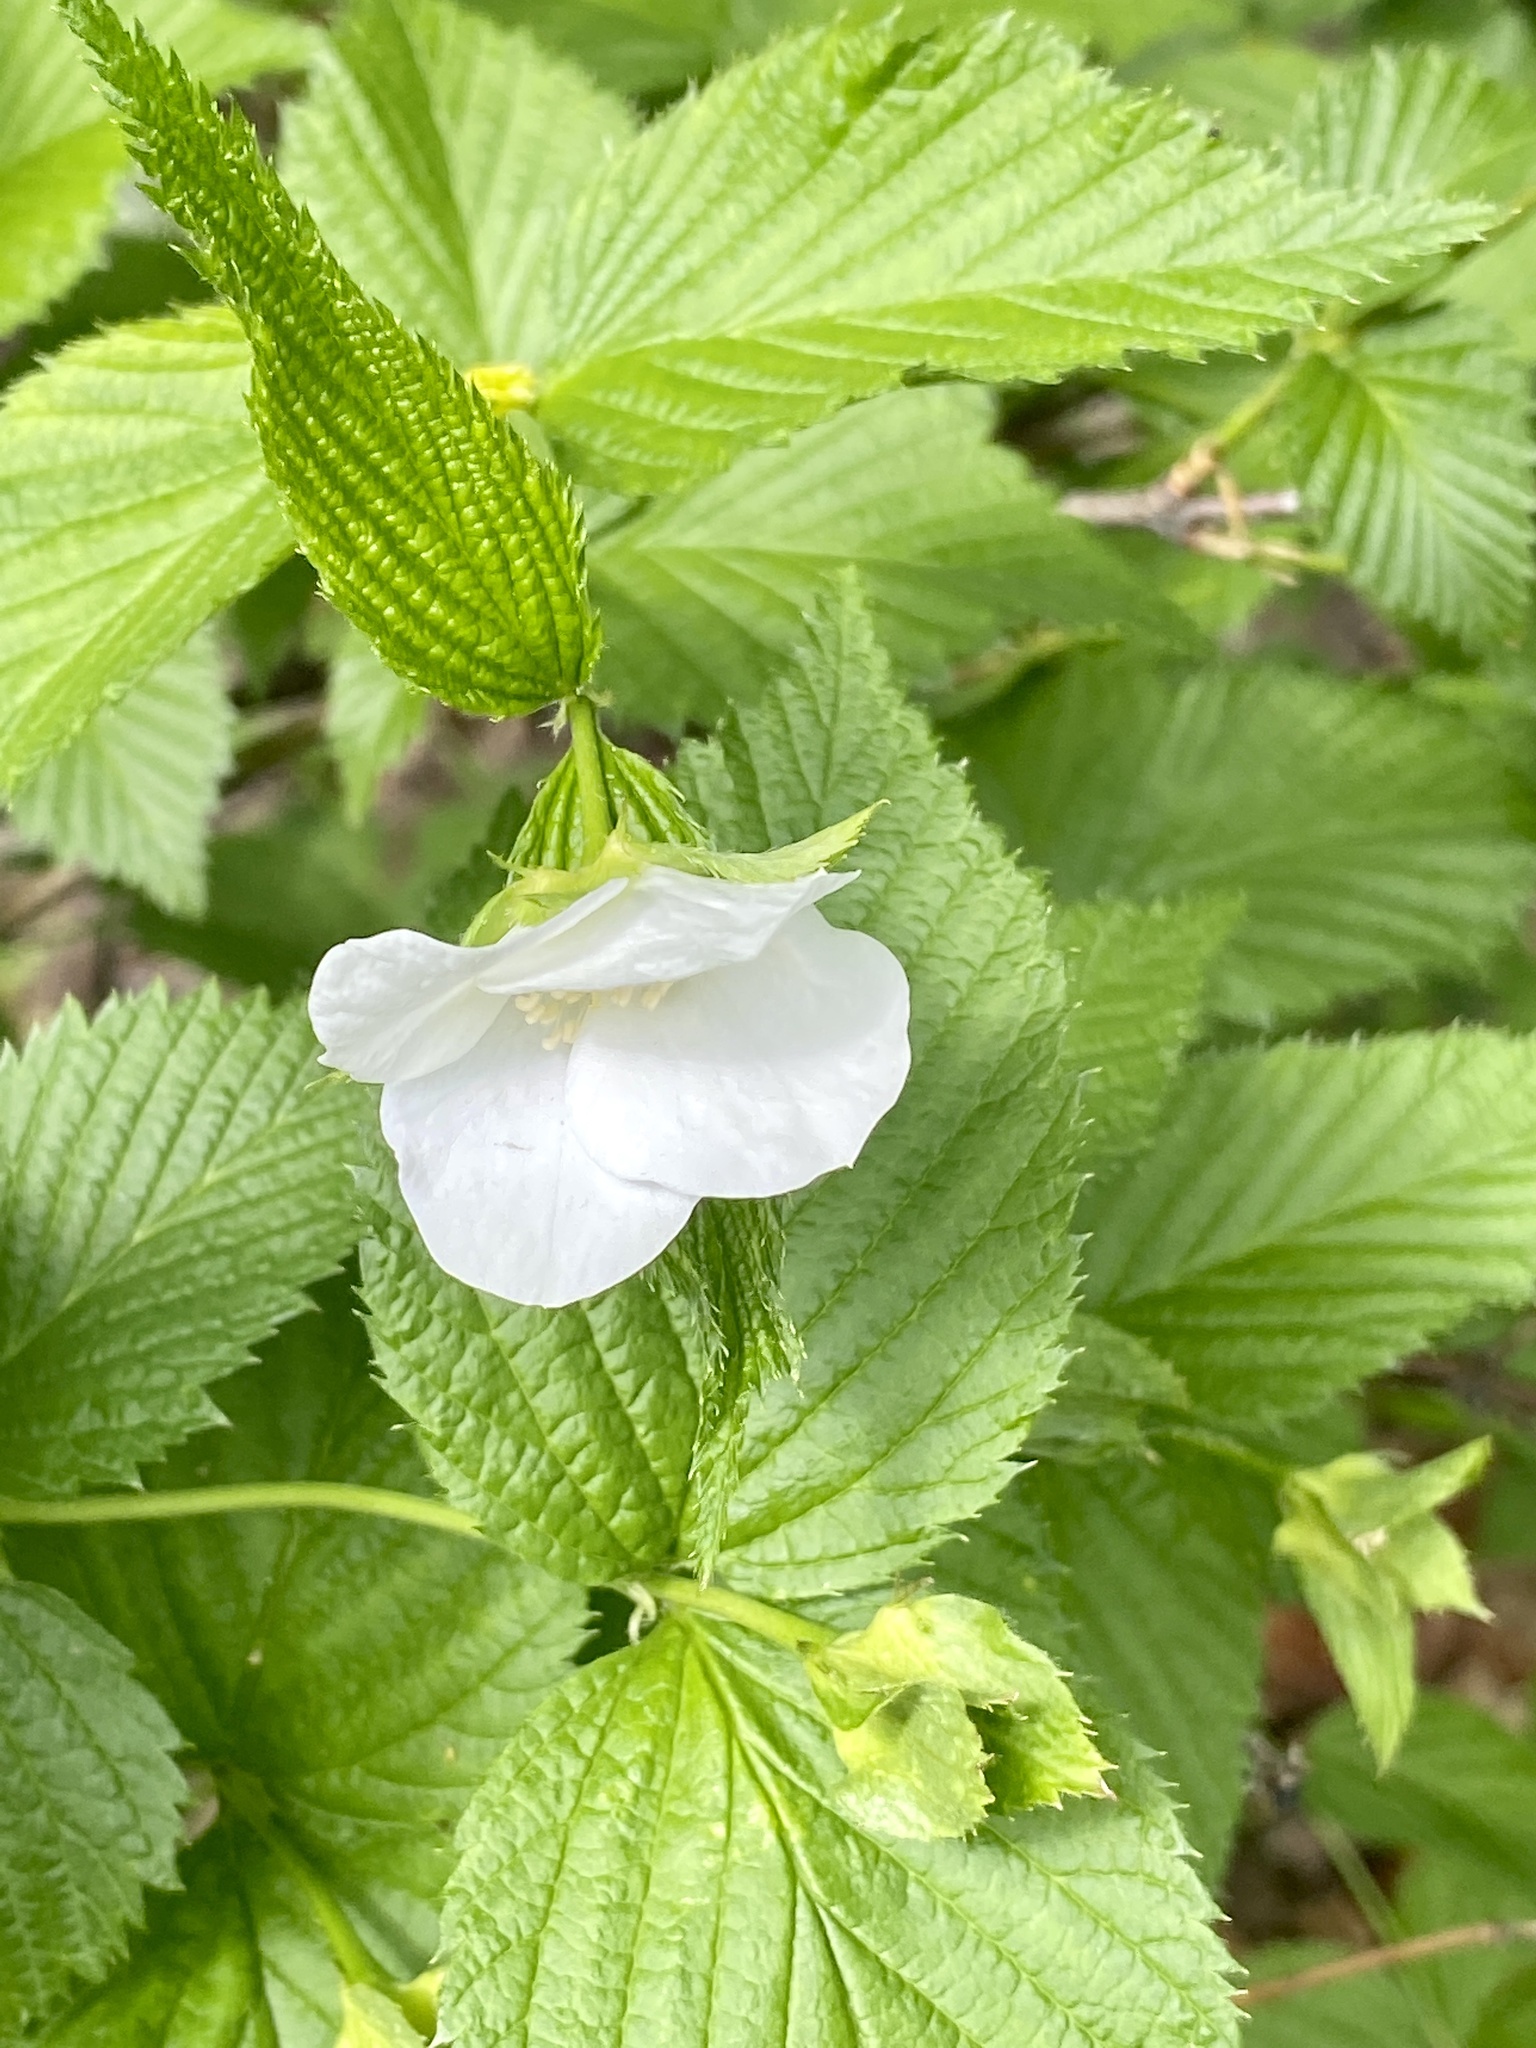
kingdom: Plantae
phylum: Tracheophyta
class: Magnoliopsida
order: Rosales
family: Rosaceae
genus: Rhodotypos
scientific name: Rhodotypos scandens
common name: Jetbead
